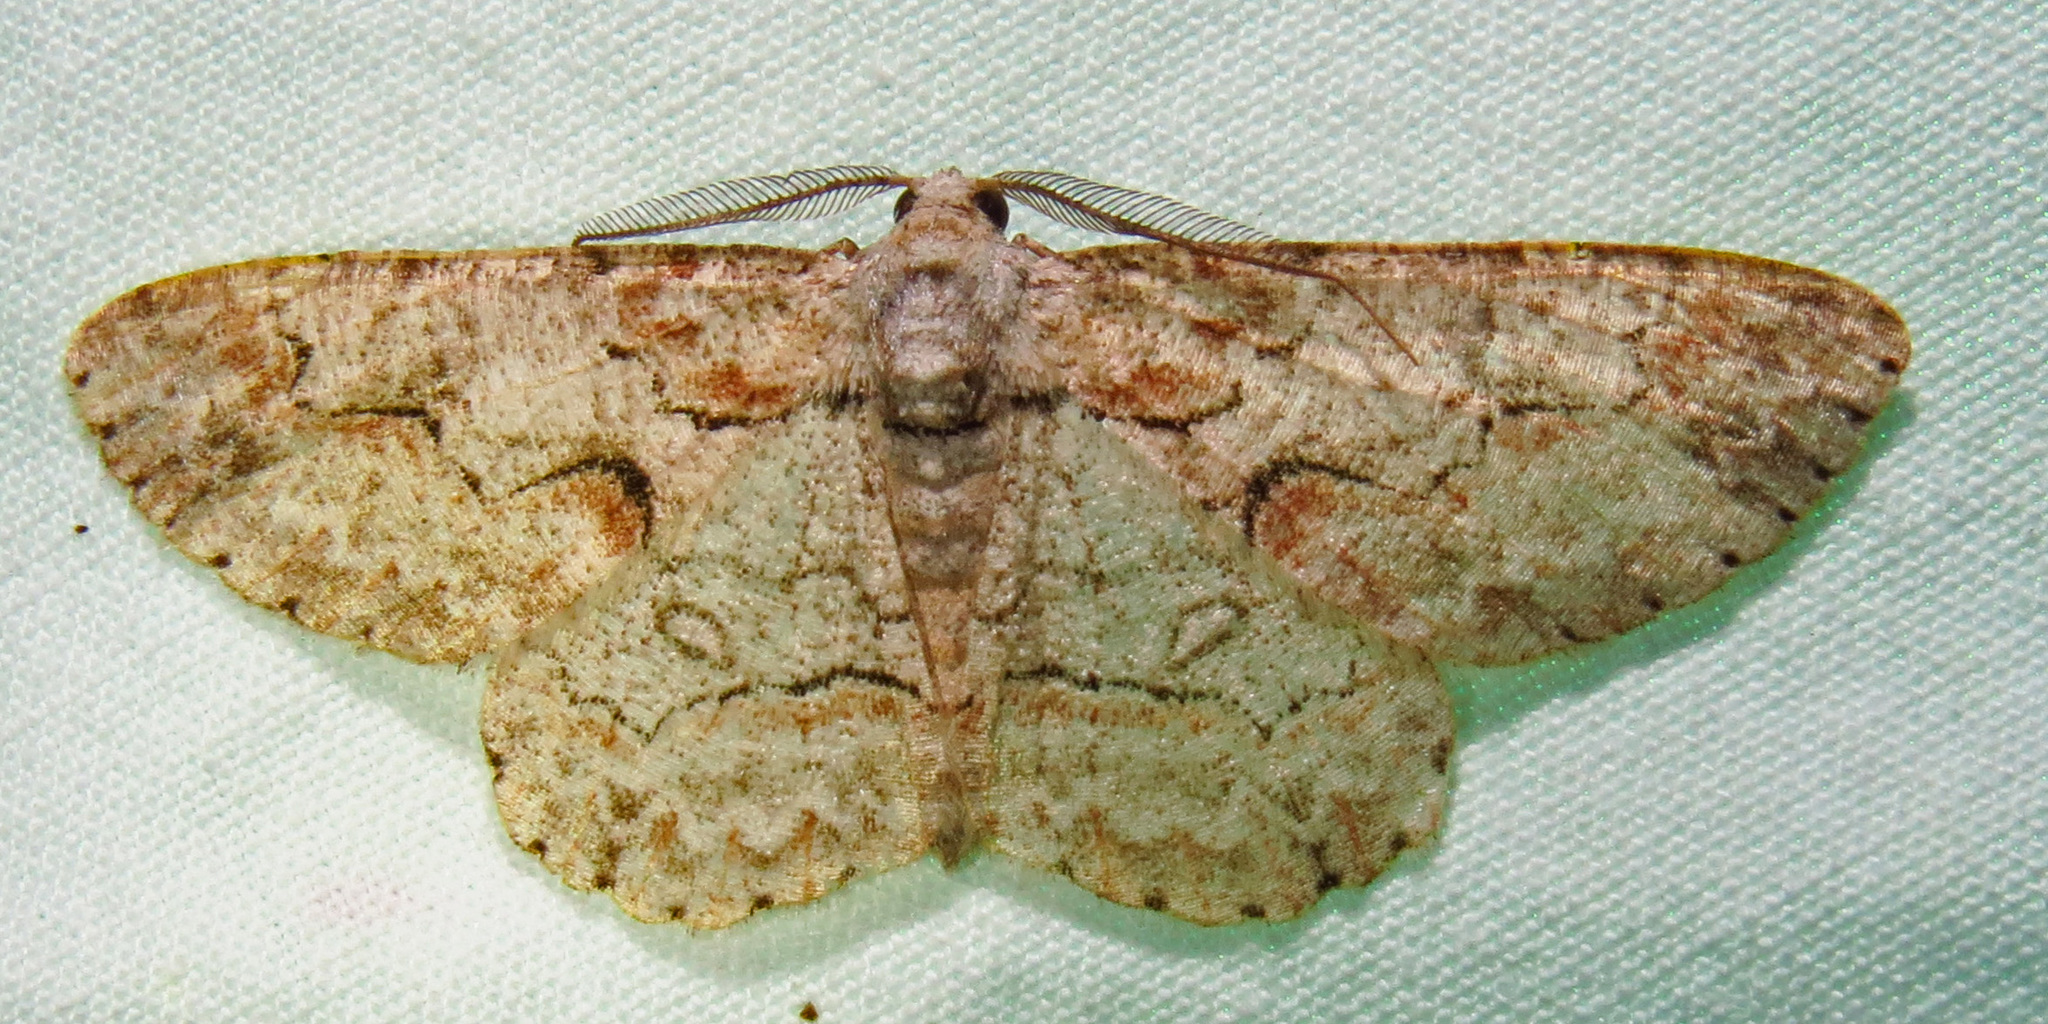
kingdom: Animalia
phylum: Arthropoda
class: Insecta
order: Lepidoptera
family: Geometridae
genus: Iridopsis
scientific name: Iridopsis defectaria
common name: Brown-shaded gray
